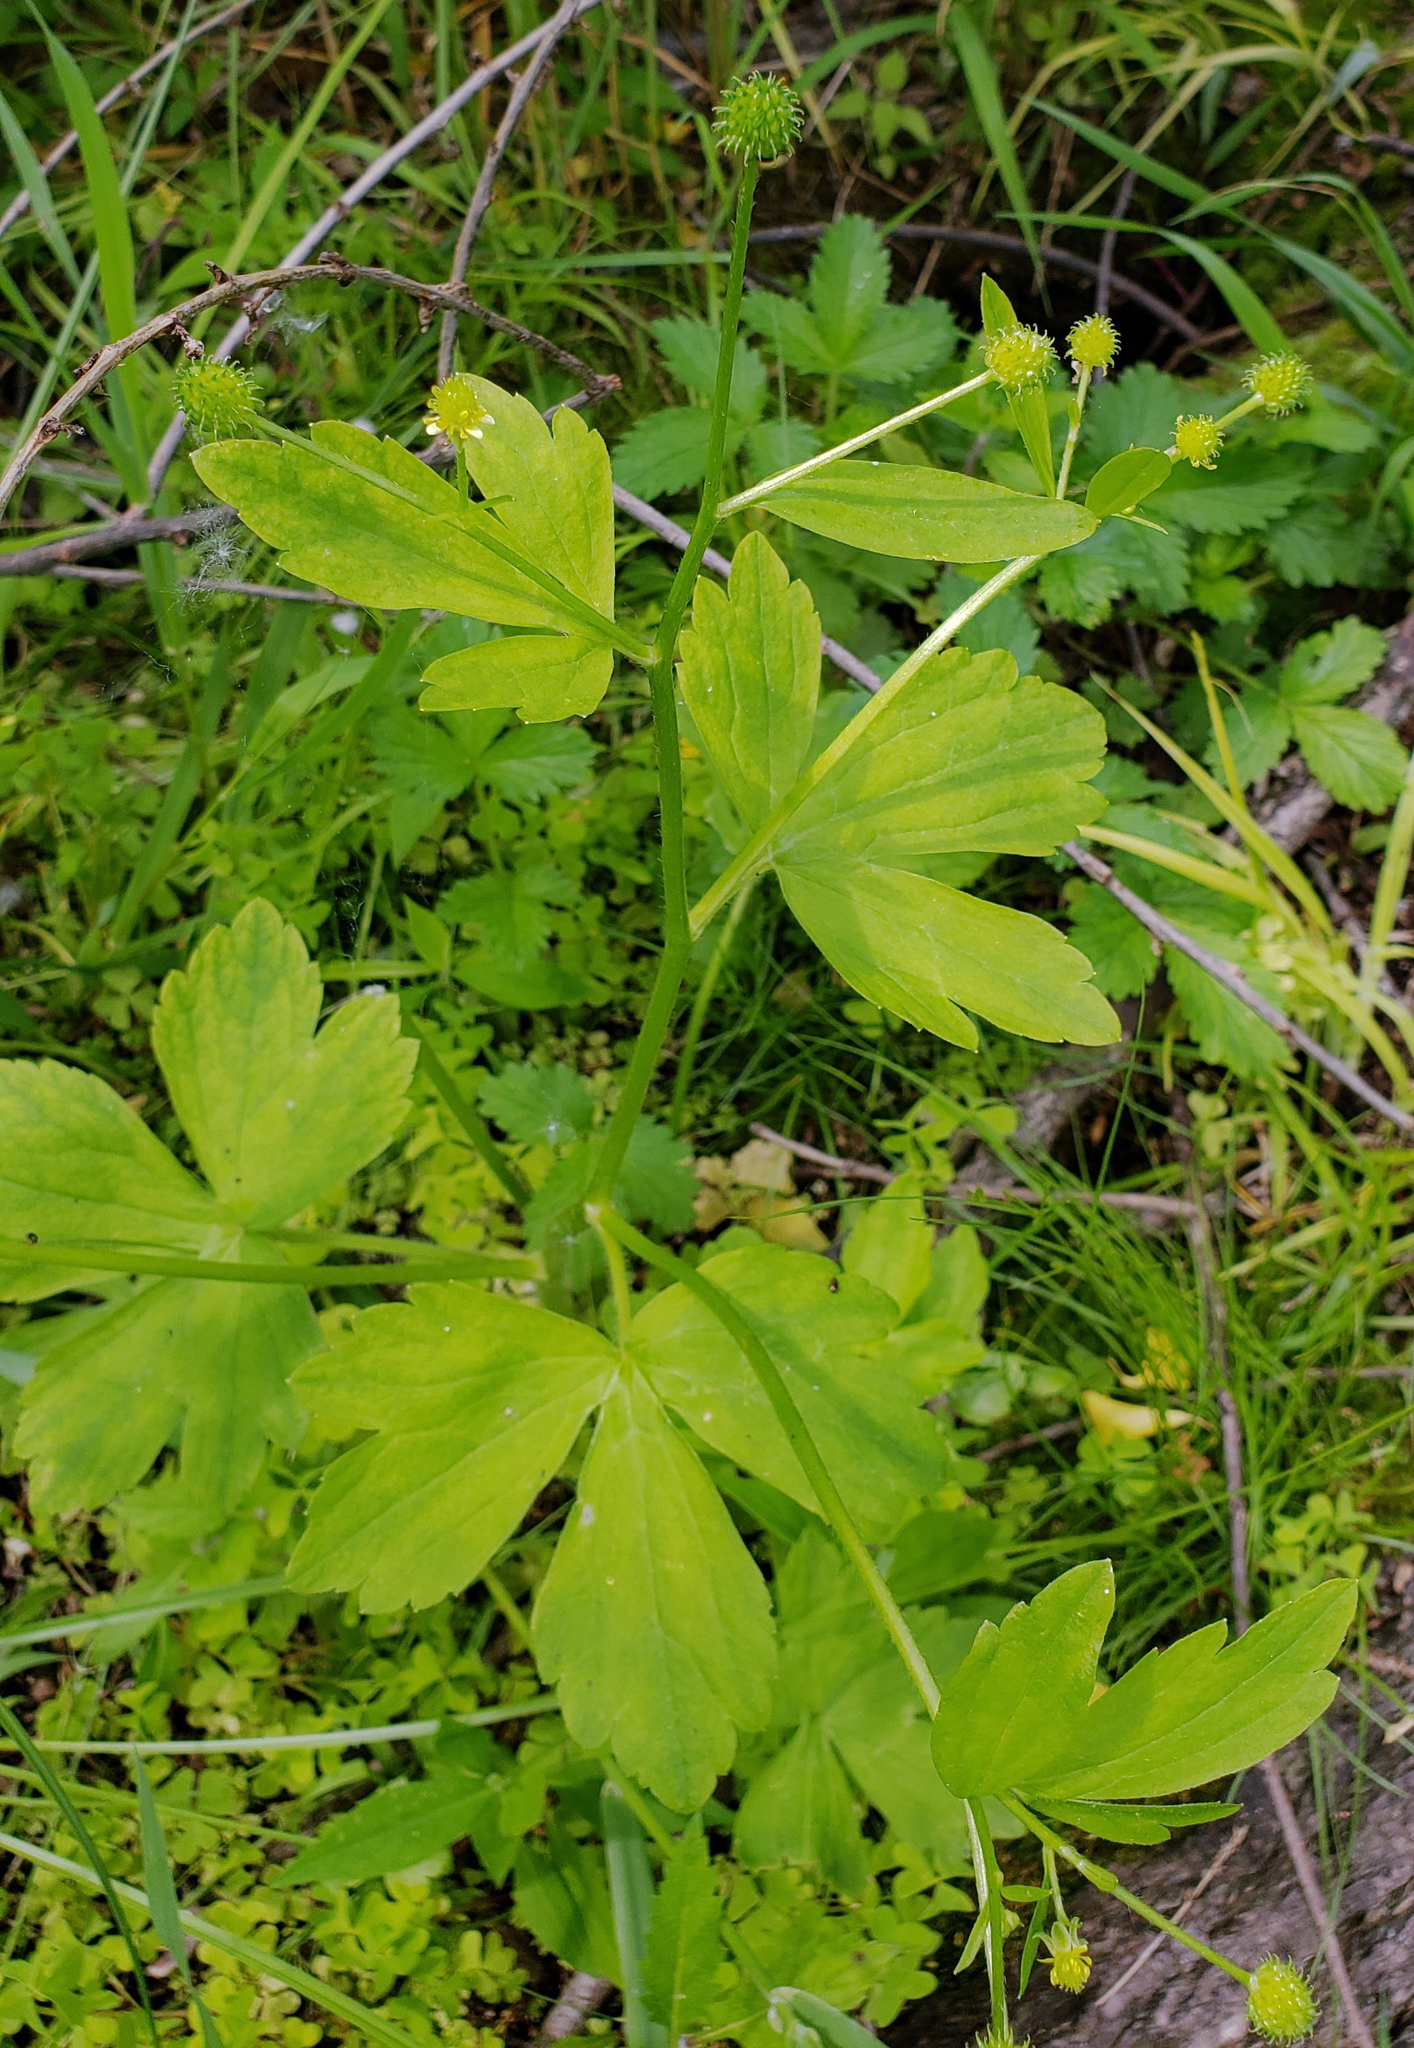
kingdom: Plantae
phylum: Tracheophyta
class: Magnoliopsida
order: Ranunculales
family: Ranunculaceae
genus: Ranunculus
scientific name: Ranunculus recurvatus
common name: Blisterwort
